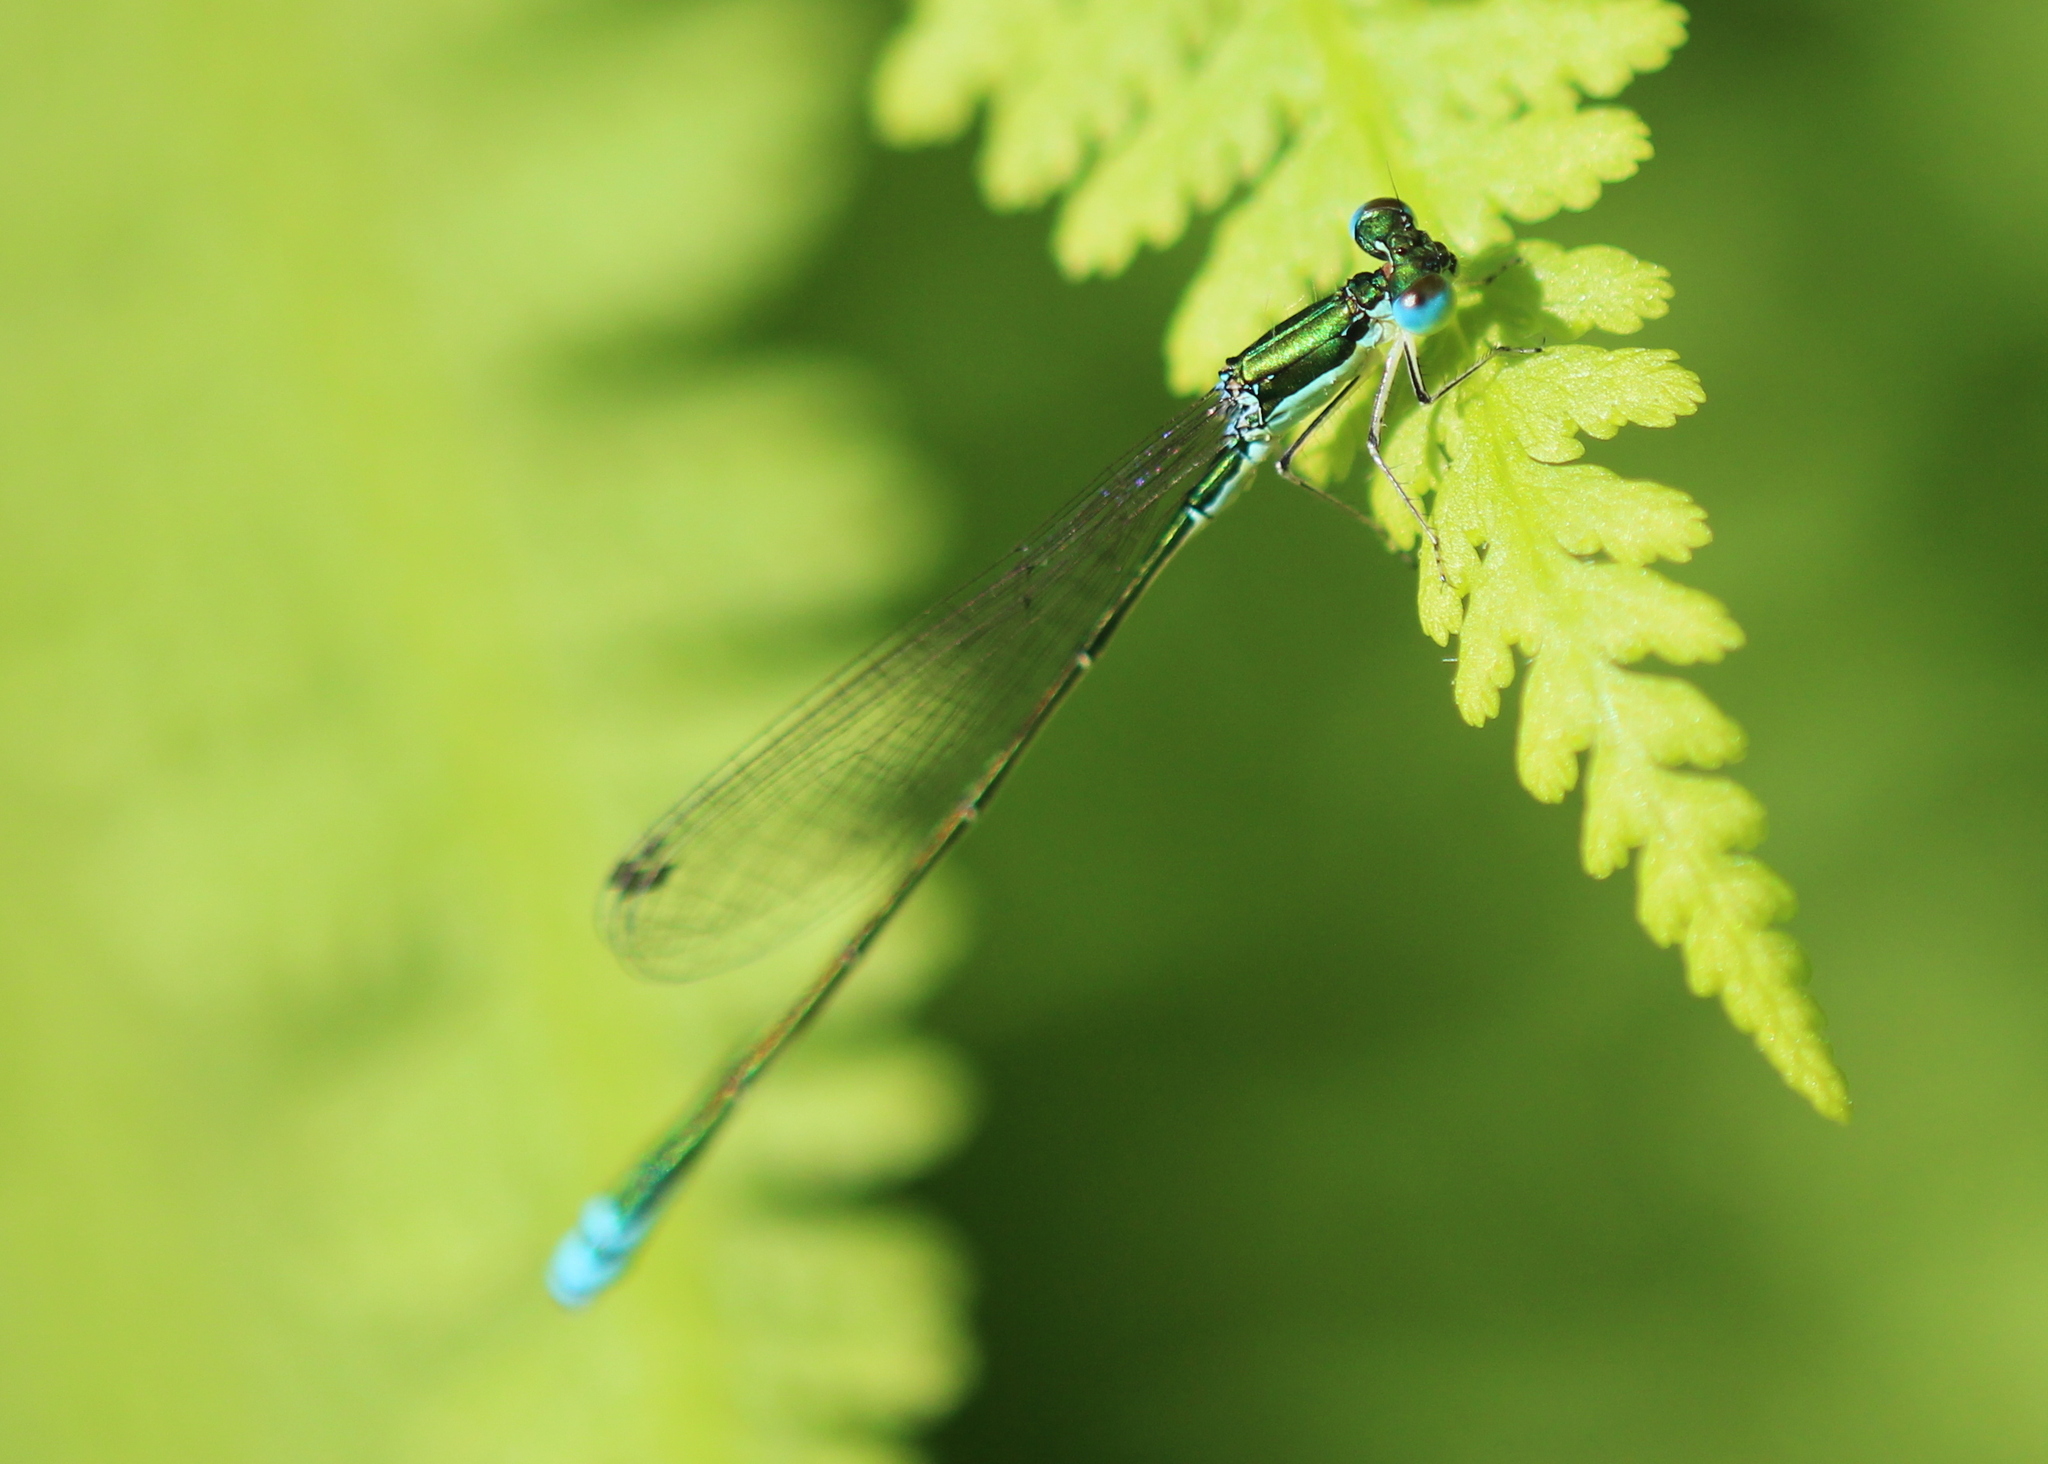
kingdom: Animalia
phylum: Arthropoda
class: Insecta
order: Odonata
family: Coenagrionidae
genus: Nehalennia
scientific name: Nehalennia irene
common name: Sedge sprite
